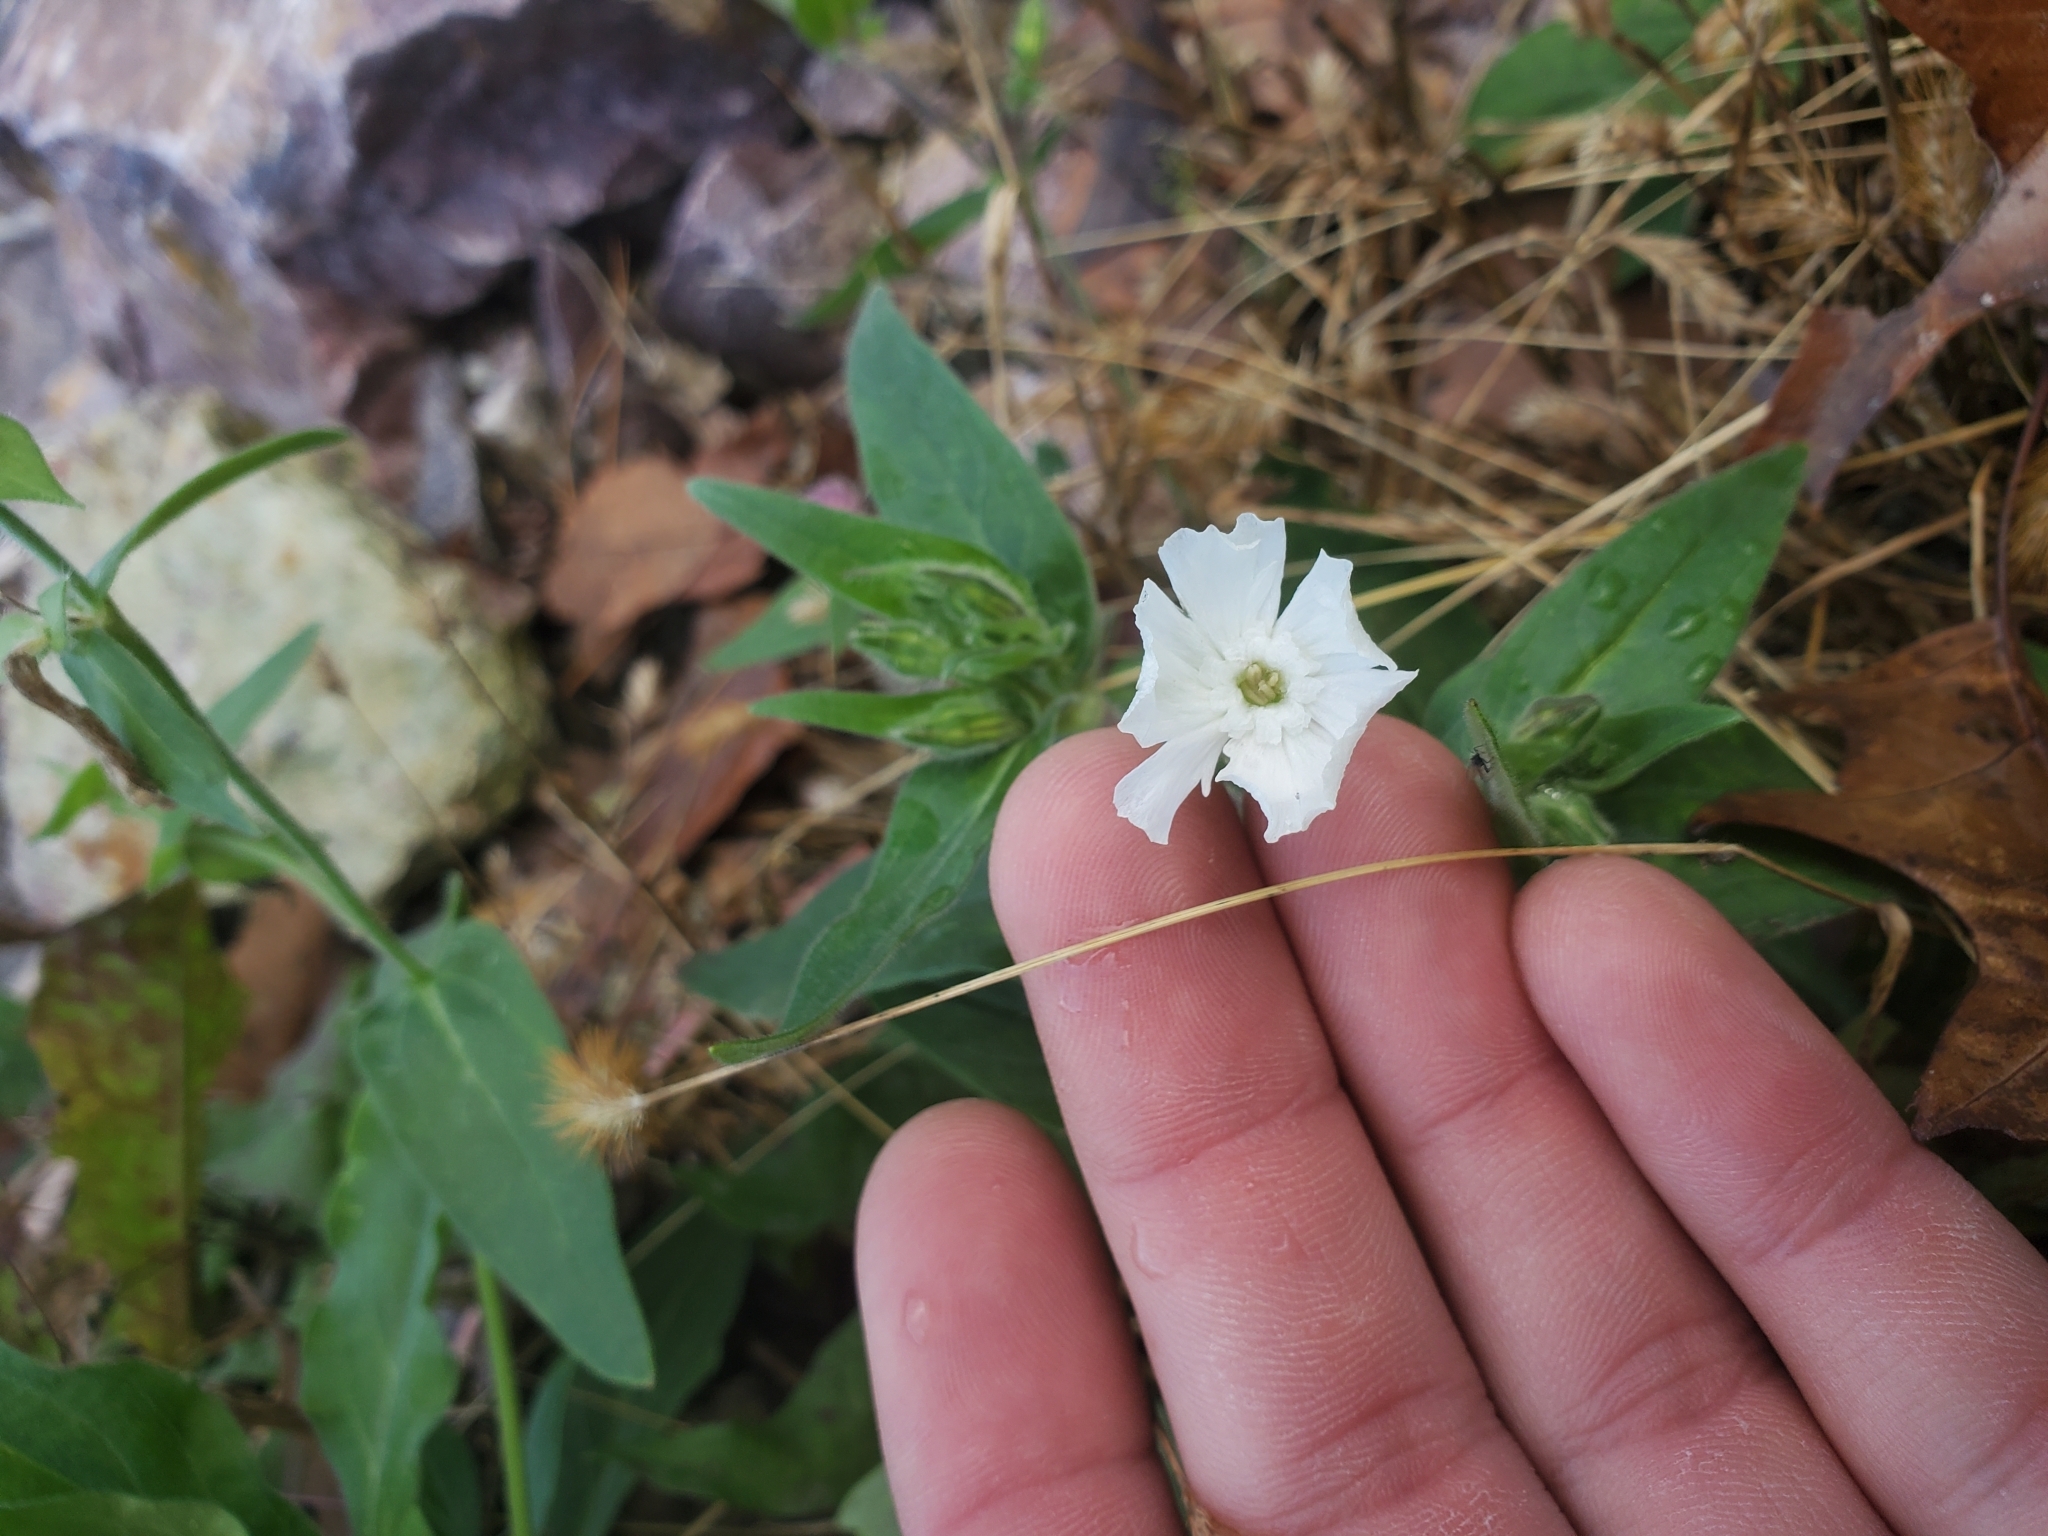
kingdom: Plantae
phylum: Tracheophyta
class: Magnoliopsida
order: Caryophyllales
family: Caryophyllaceae
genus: Silene
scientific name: Silene latifolia
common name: White campion
